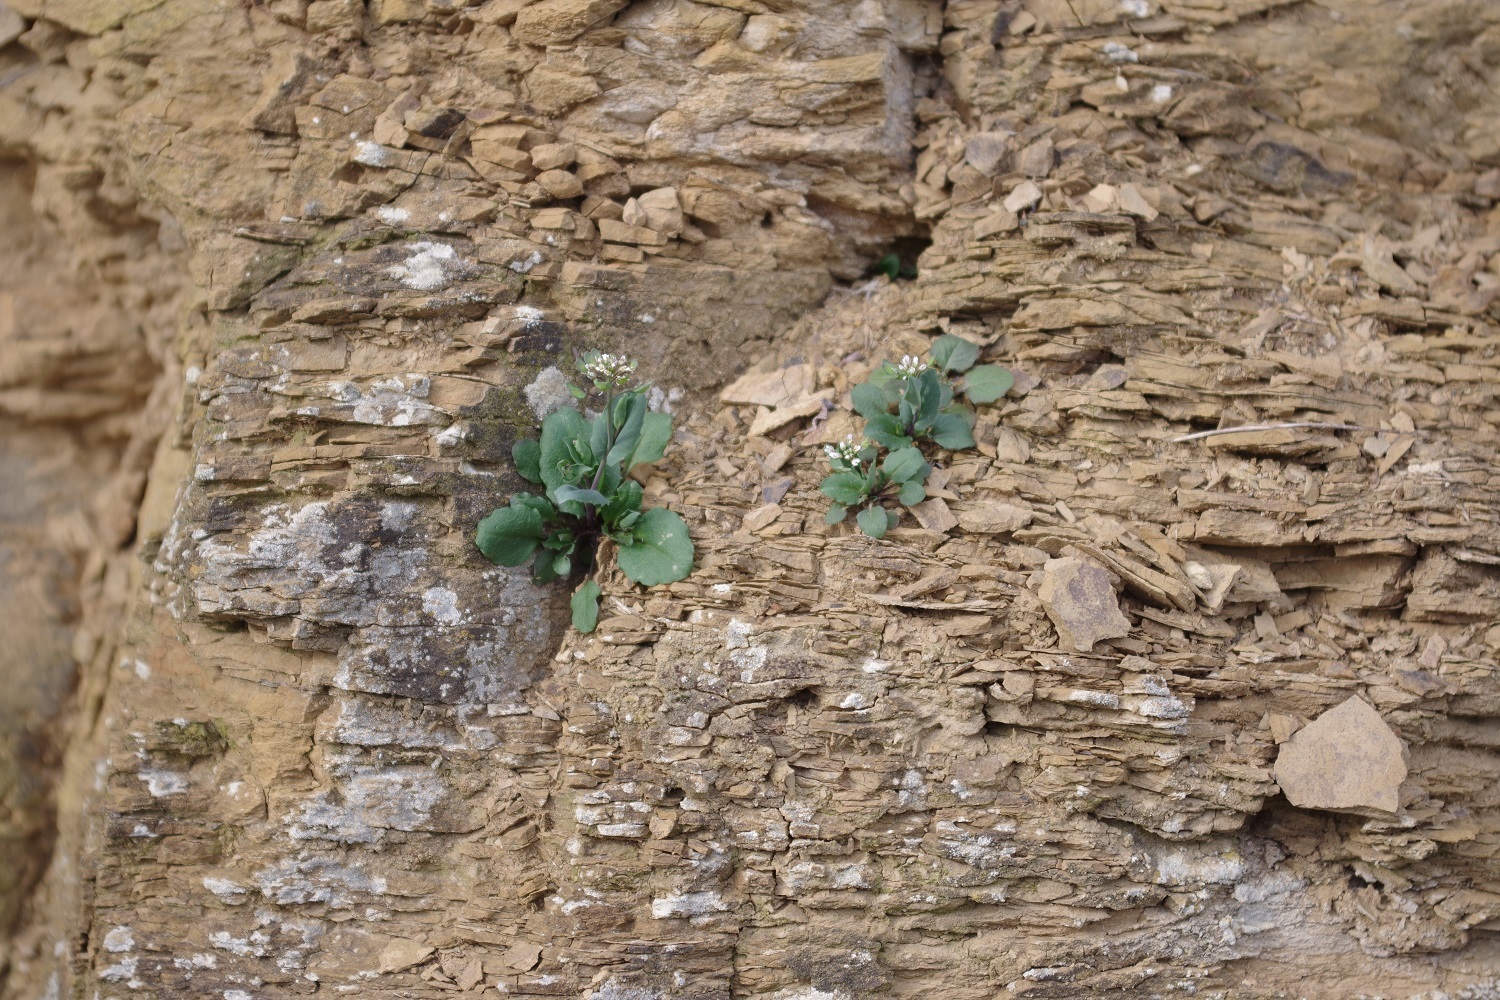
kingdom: Plantae
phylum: Tracheophyta
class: Magnoliopsida
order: Brassicales
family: Brassicaceae
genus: Noccaea
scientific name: Noccaea perfoliata
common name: Perfoliate pennycress
